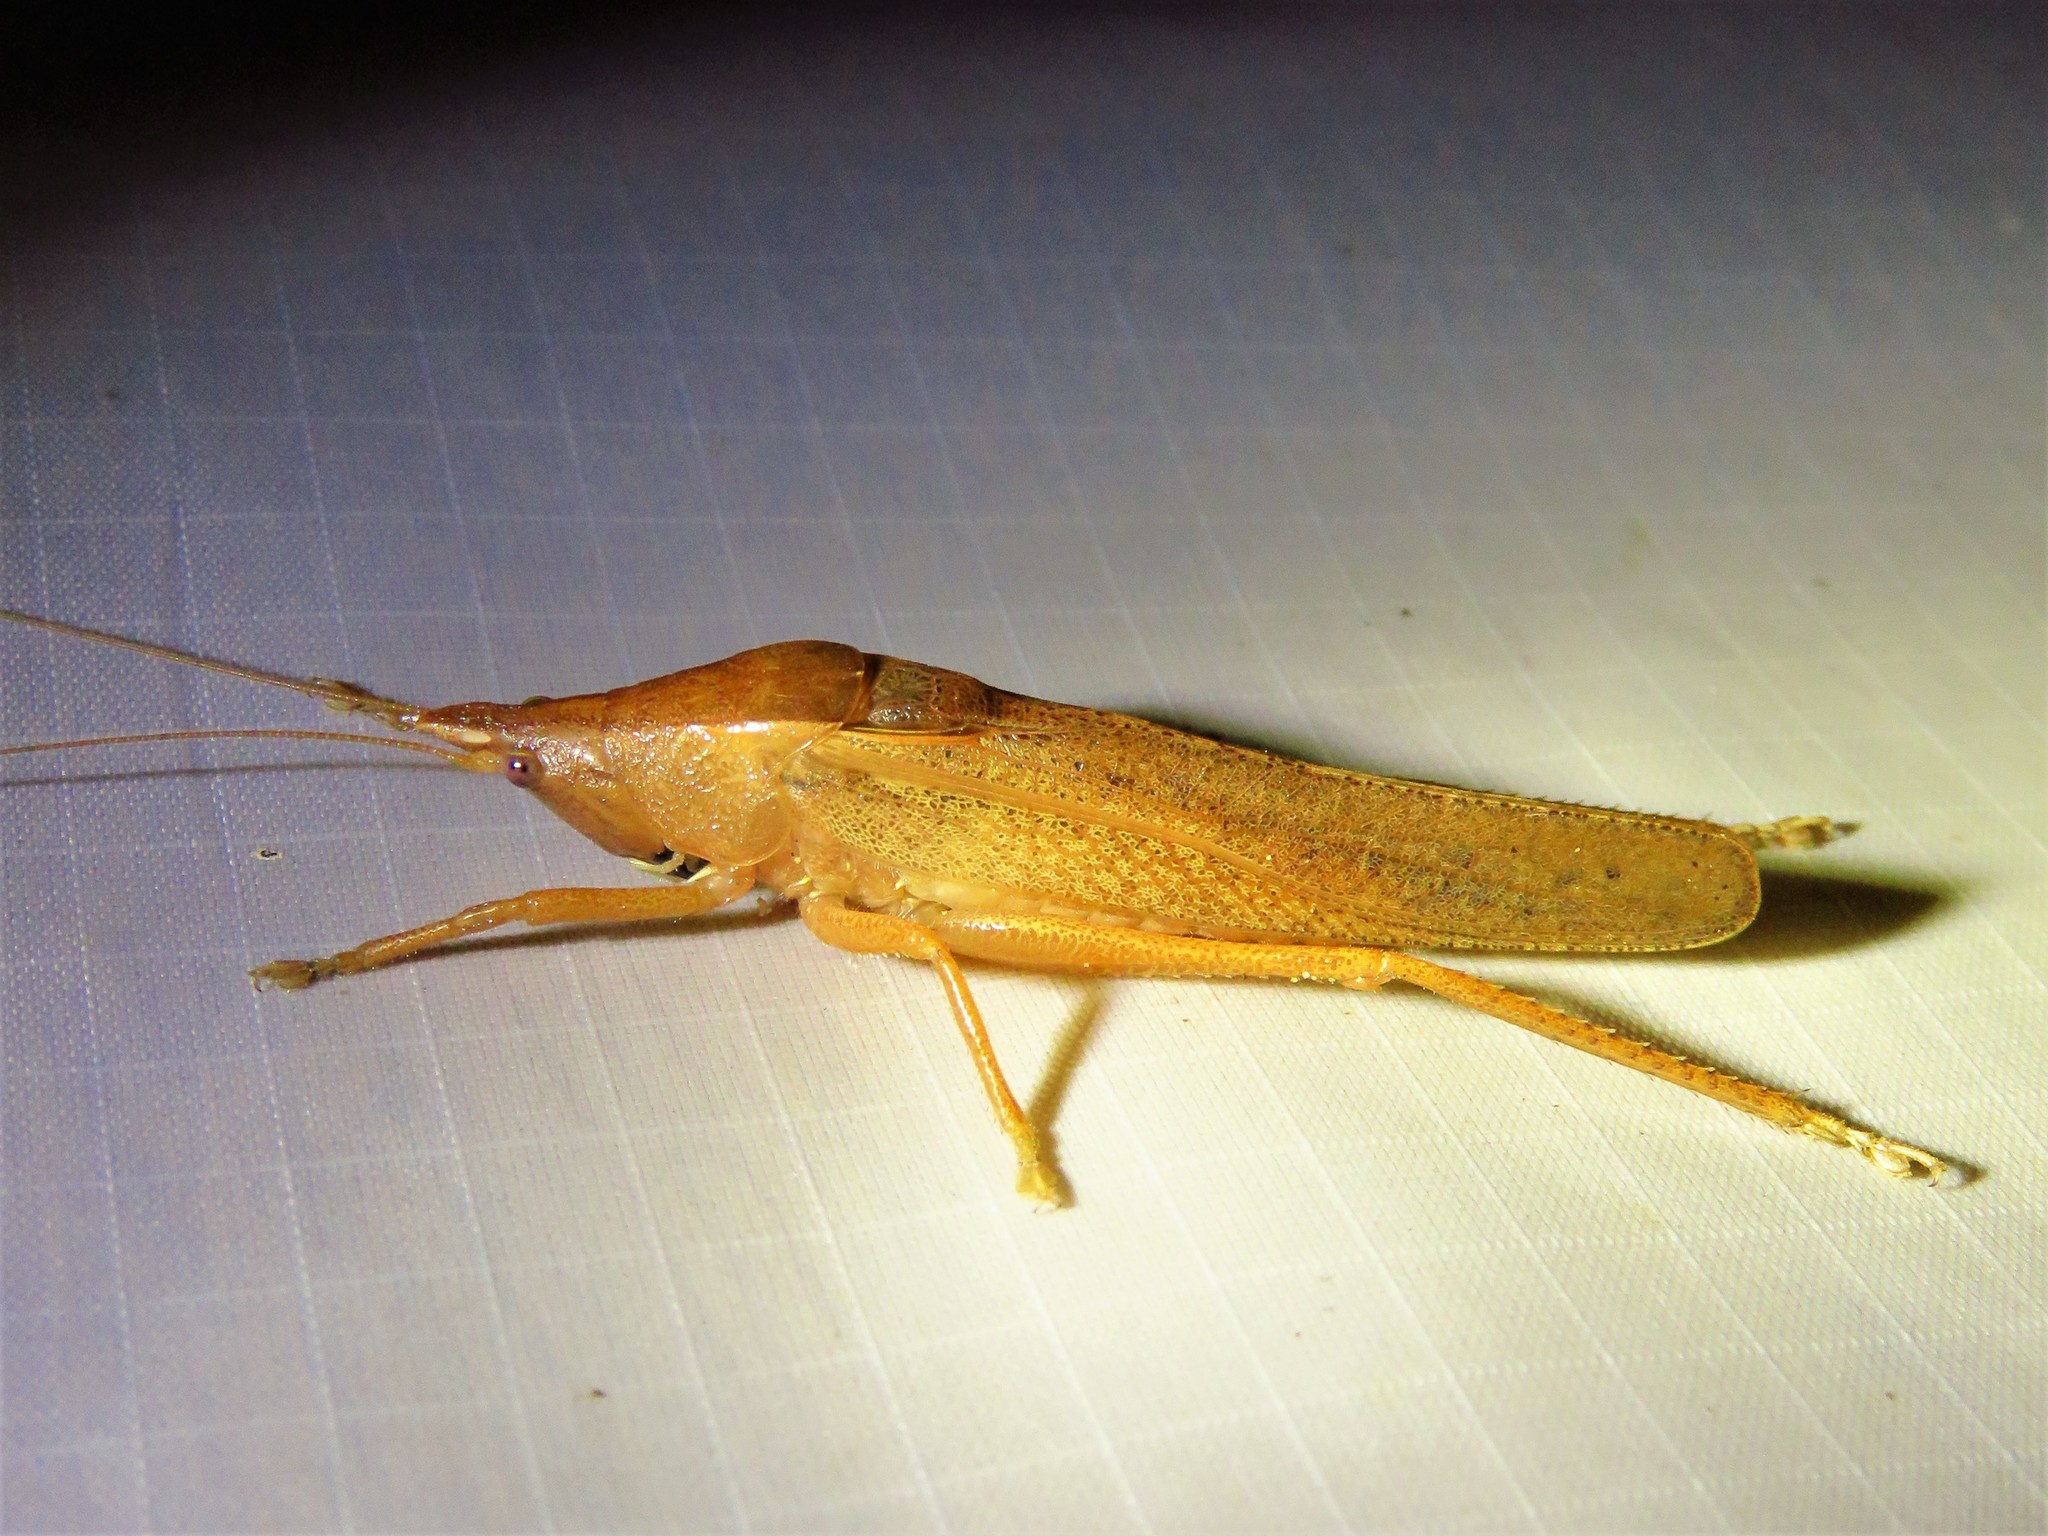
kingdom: Animalia
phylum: Arthropoda
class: Insecta
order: Orthoptera
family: Tettigoniidae
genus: Pyrgocorypha
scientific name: Pyrgocorypha uncinata
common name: Hook-faced conehead
